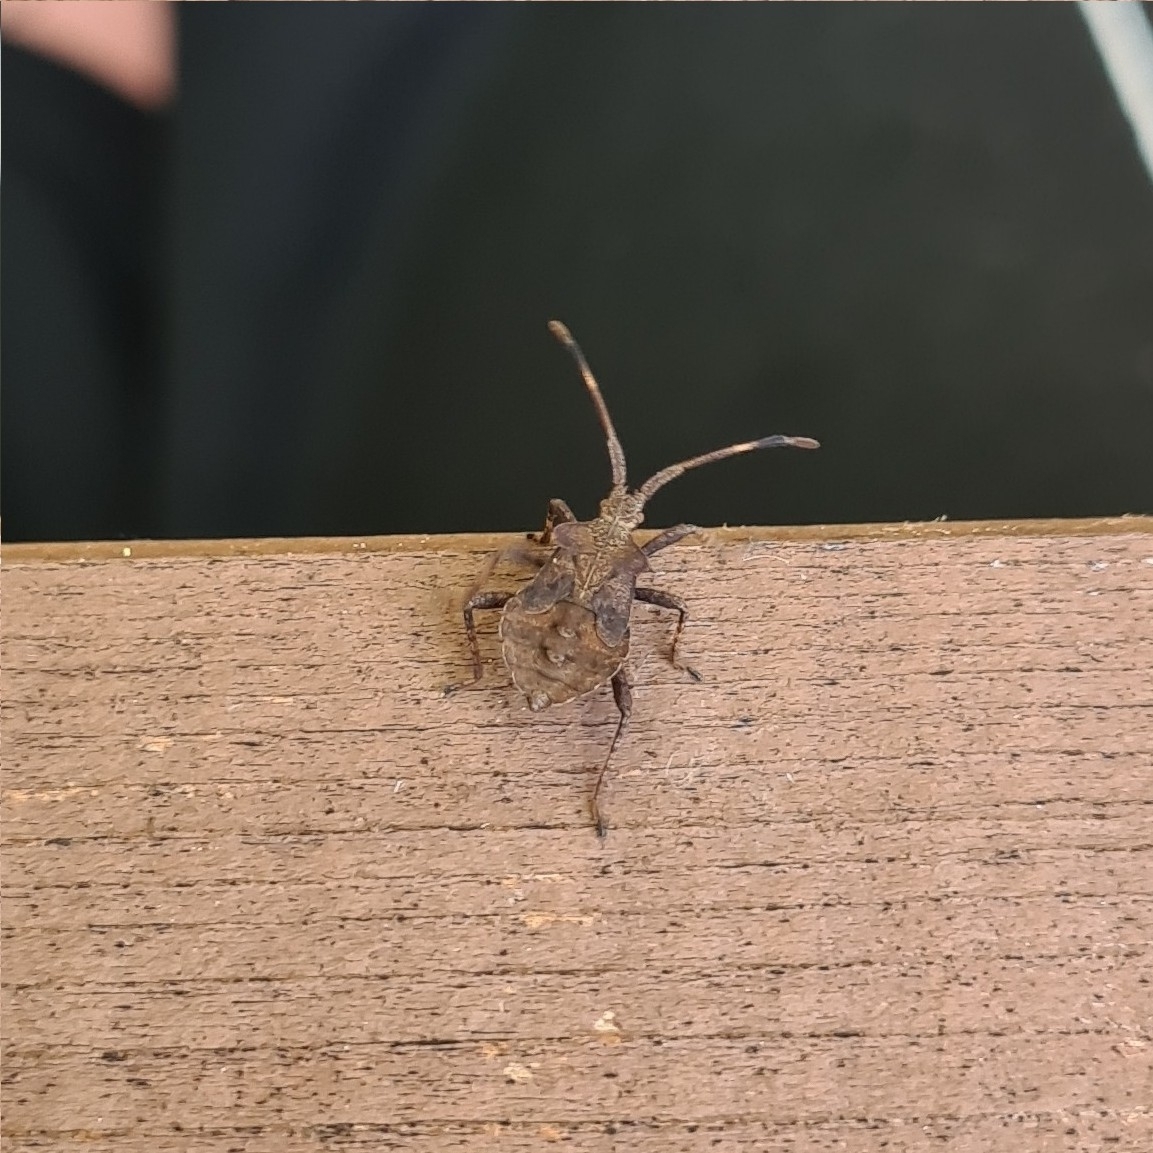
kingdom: Animalia
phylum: Arthropoda
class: Insecta
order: Hemiptera
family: Coreidae
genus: Coreus
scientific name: Coreus marginatus
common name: Dock bug
